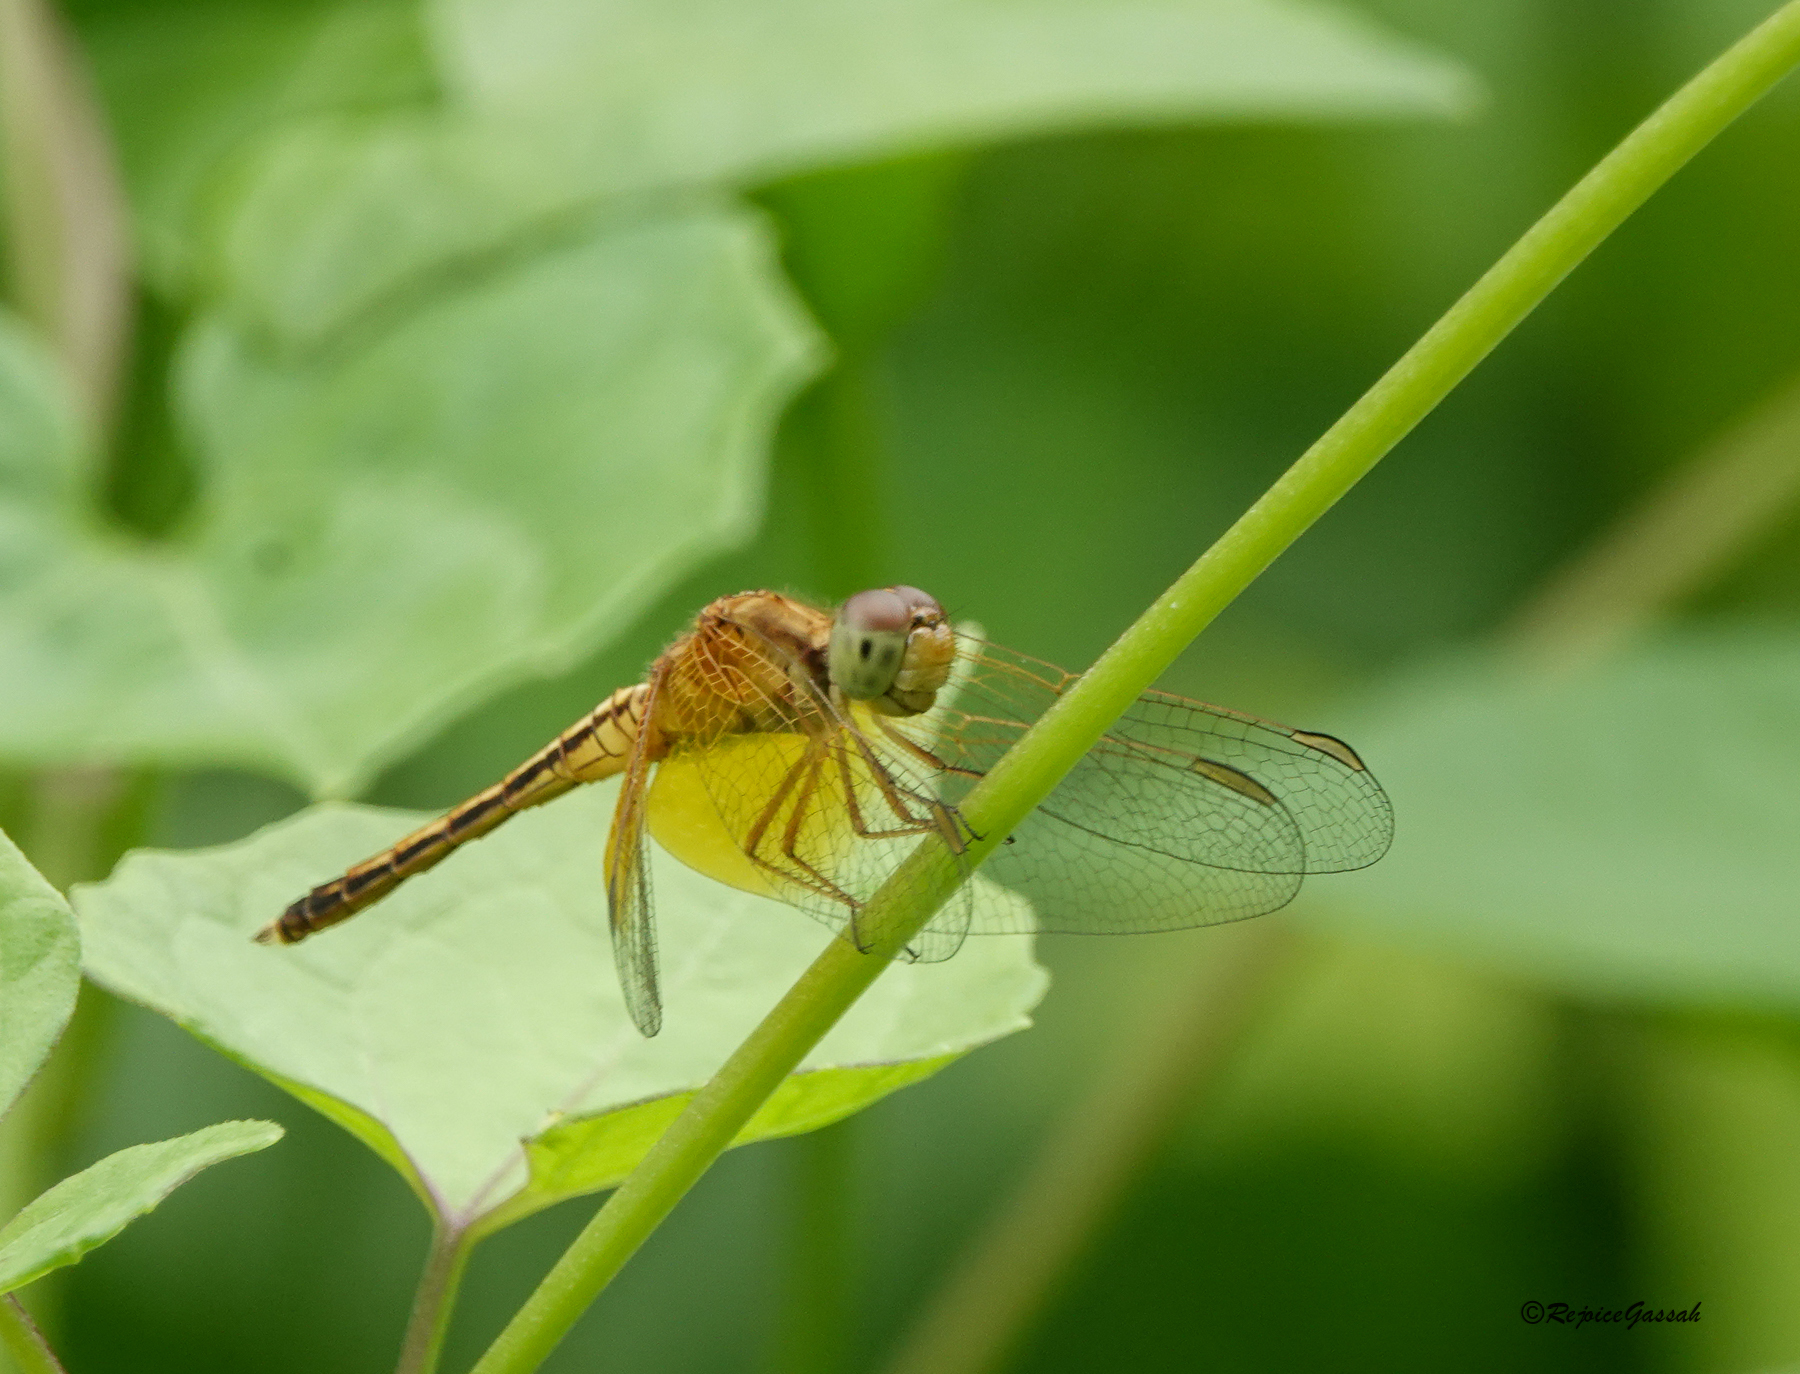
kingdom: Animalia
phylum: Arthropoda
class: Insecta
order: Odonata
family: Libellulidae
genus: Neurothemis
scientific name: Neurothemis intermedia
